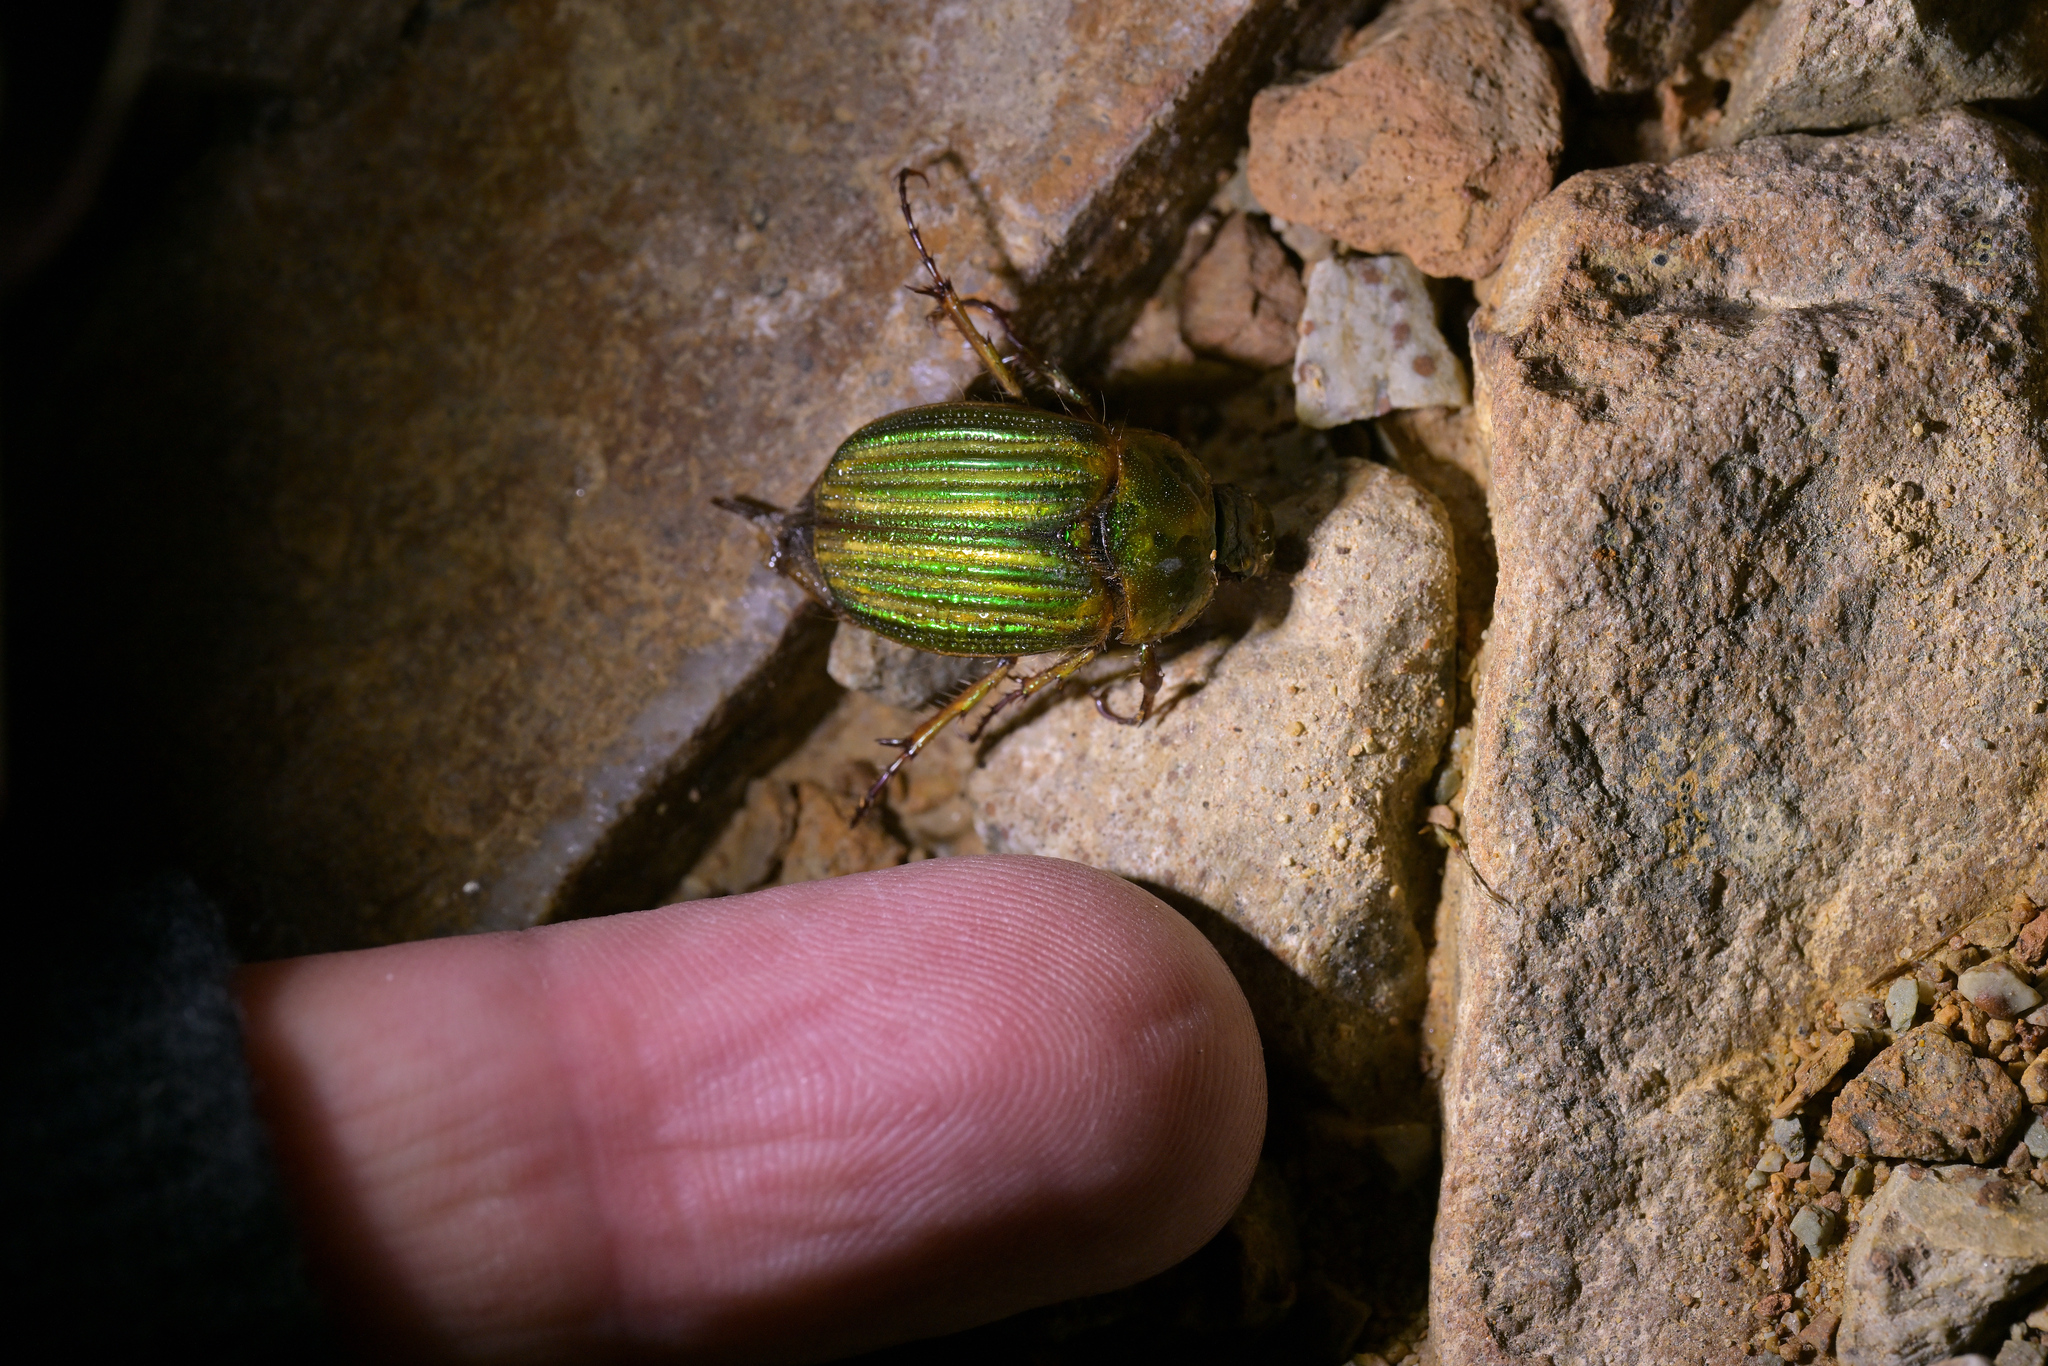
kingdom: Animalia
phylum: Arthropoda
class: Insecta
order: Coleoptera
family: Scarabaeidae
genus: Stethaspis
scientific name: Stethaspis lineata
